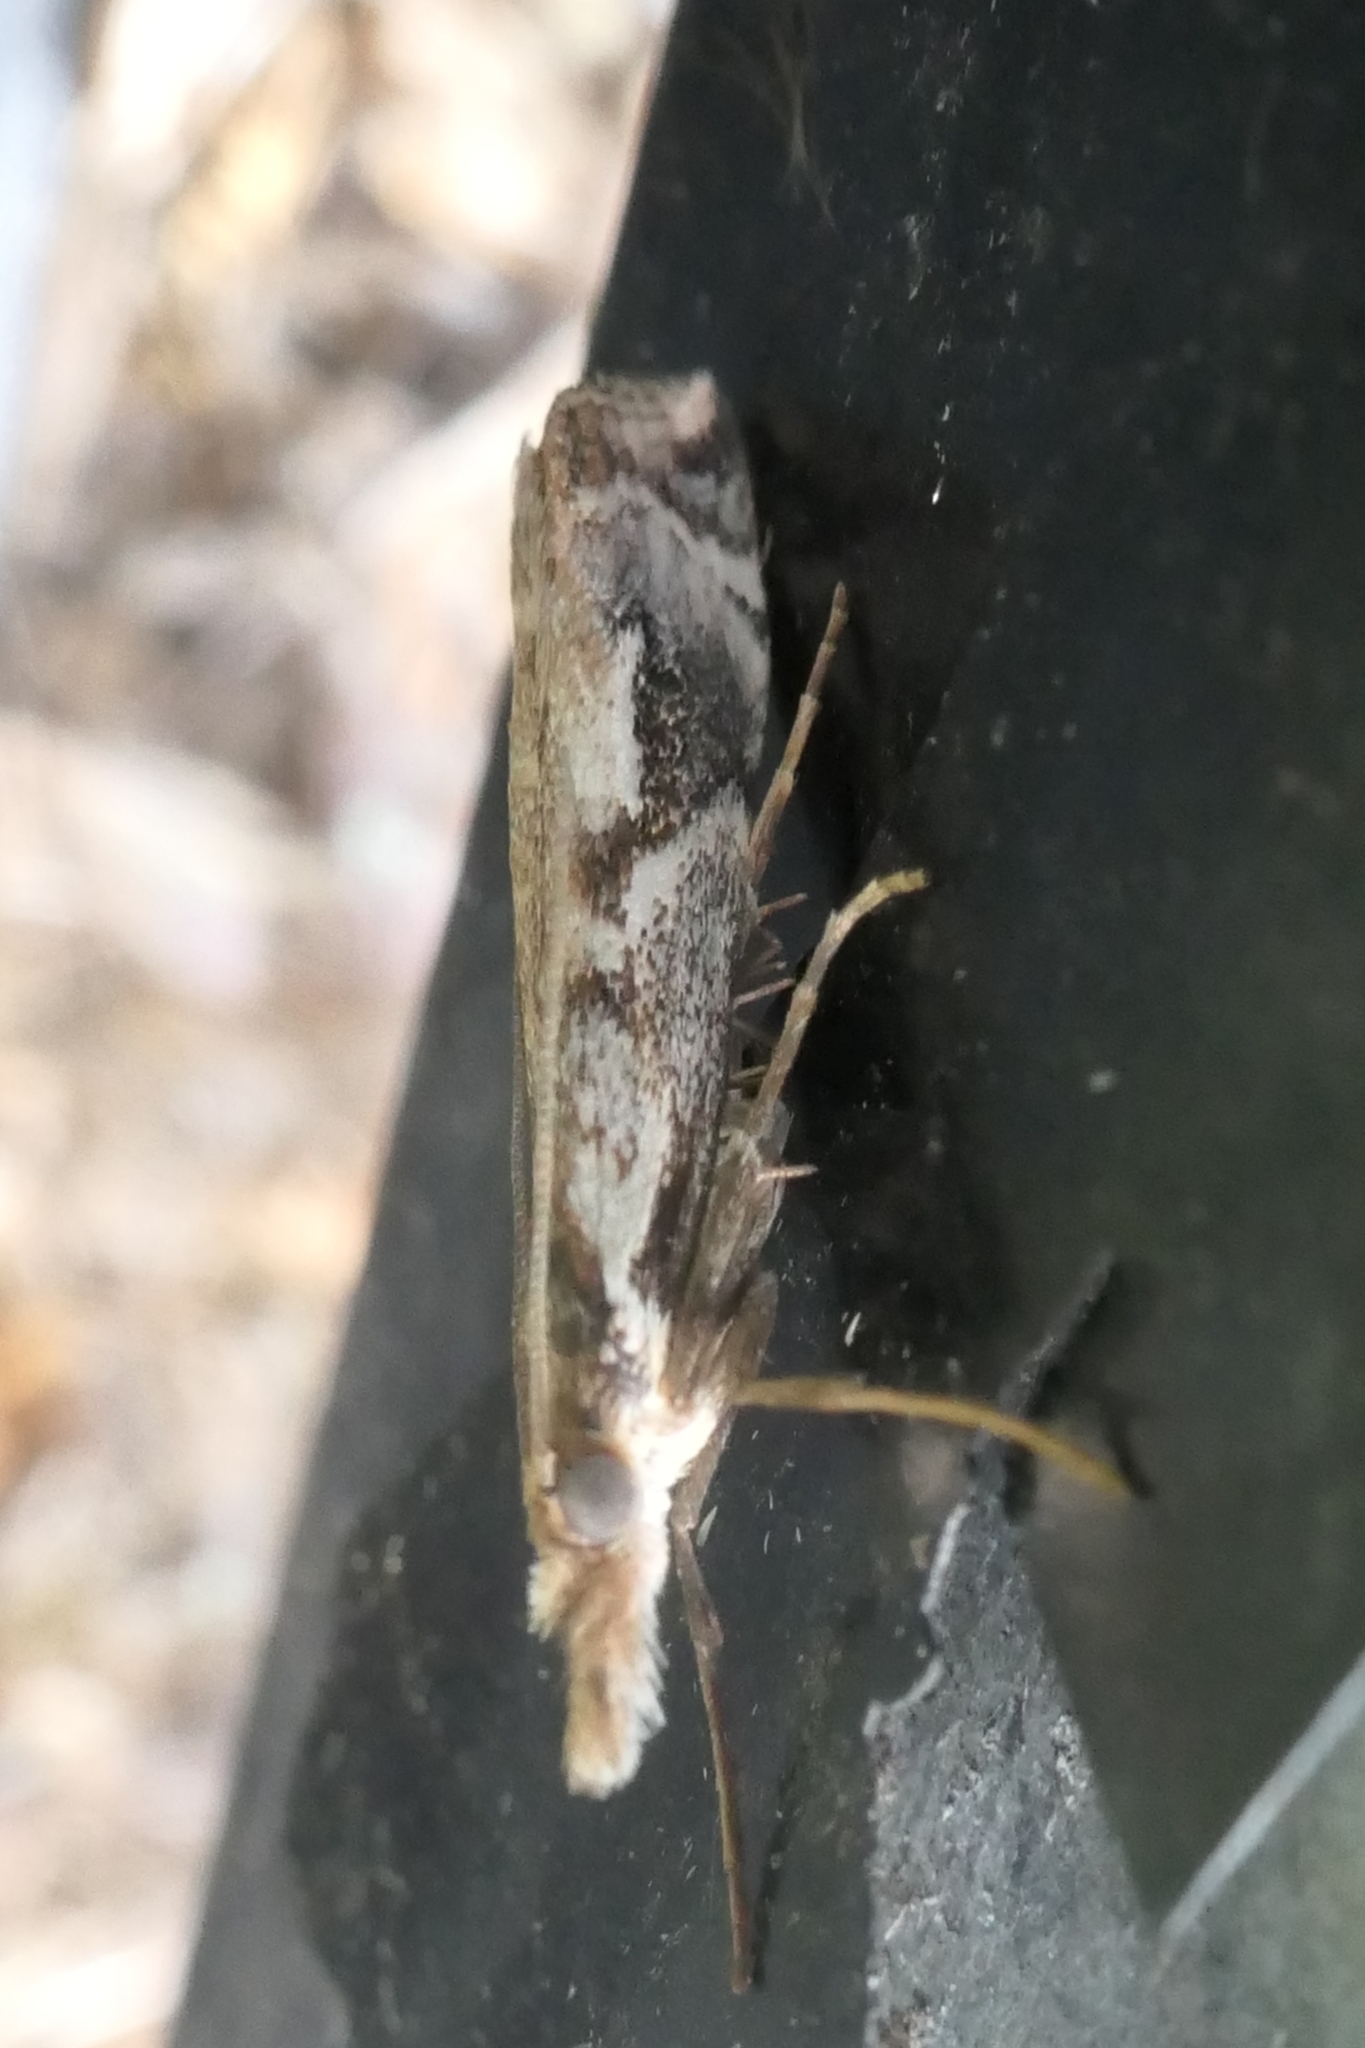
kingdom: Animalia
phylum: Arthropoda
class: Insecta
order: Lepidoptera
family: Crambidae
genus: Orocrambus
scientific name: Orocrambus vulgaris
